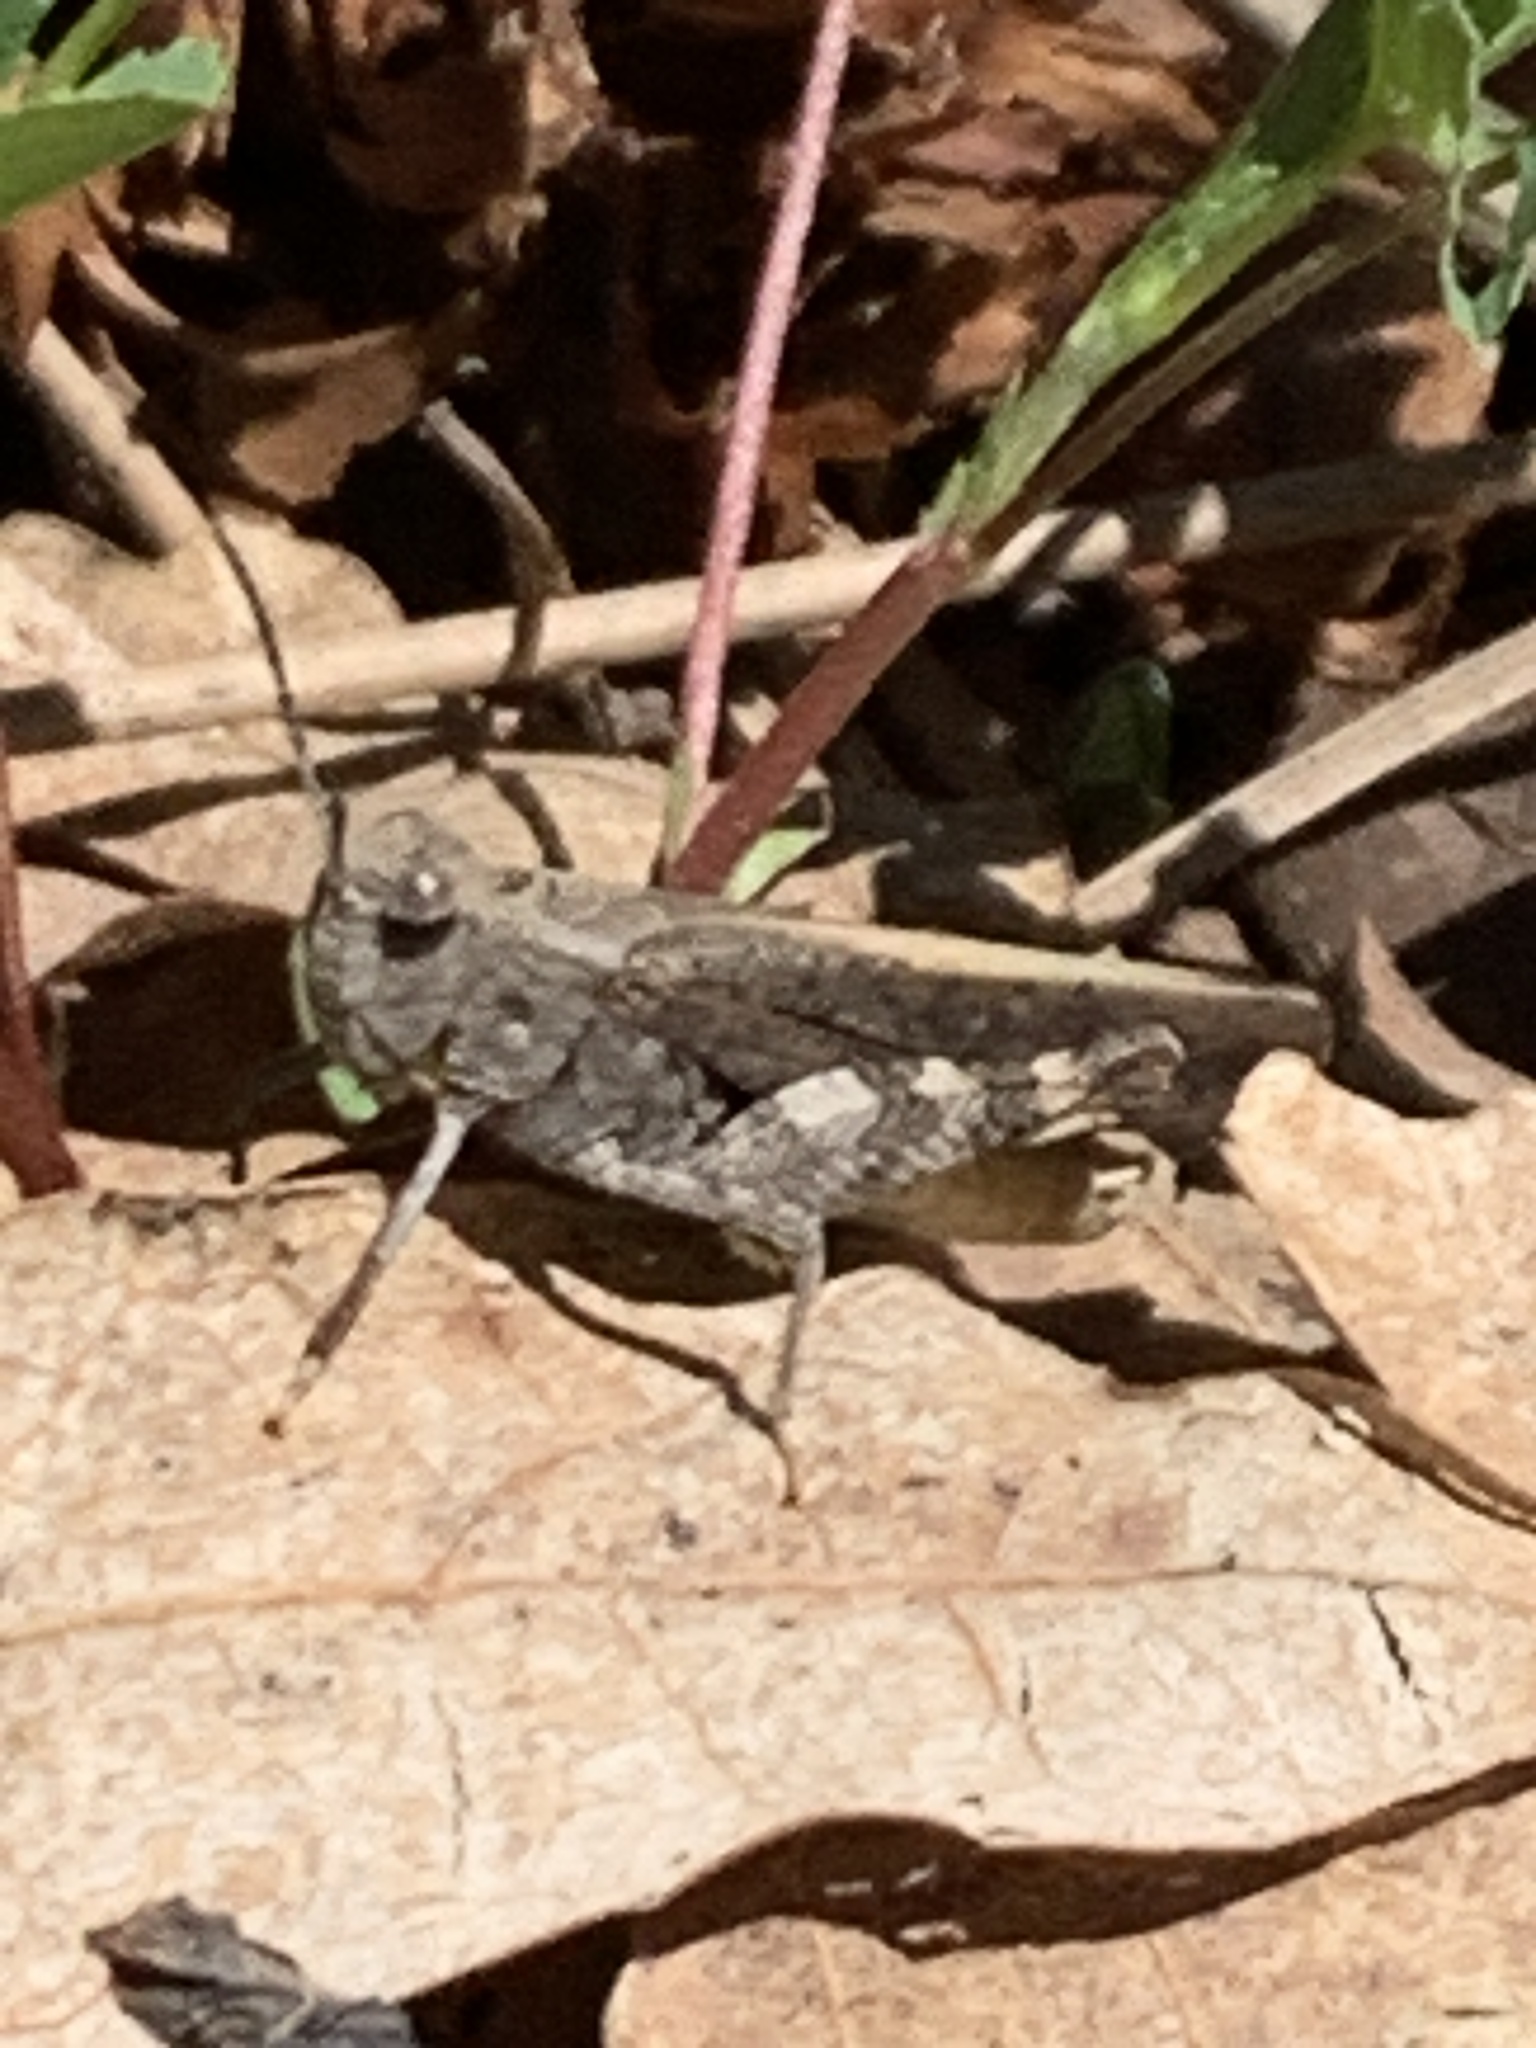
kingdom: Animalia
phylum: Arthropoda
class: Insecta
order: Orthoptera
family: Acrididae
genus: Arphia
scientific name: Arphia conspersa
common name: Speckle-winged rangeland grasshopper
